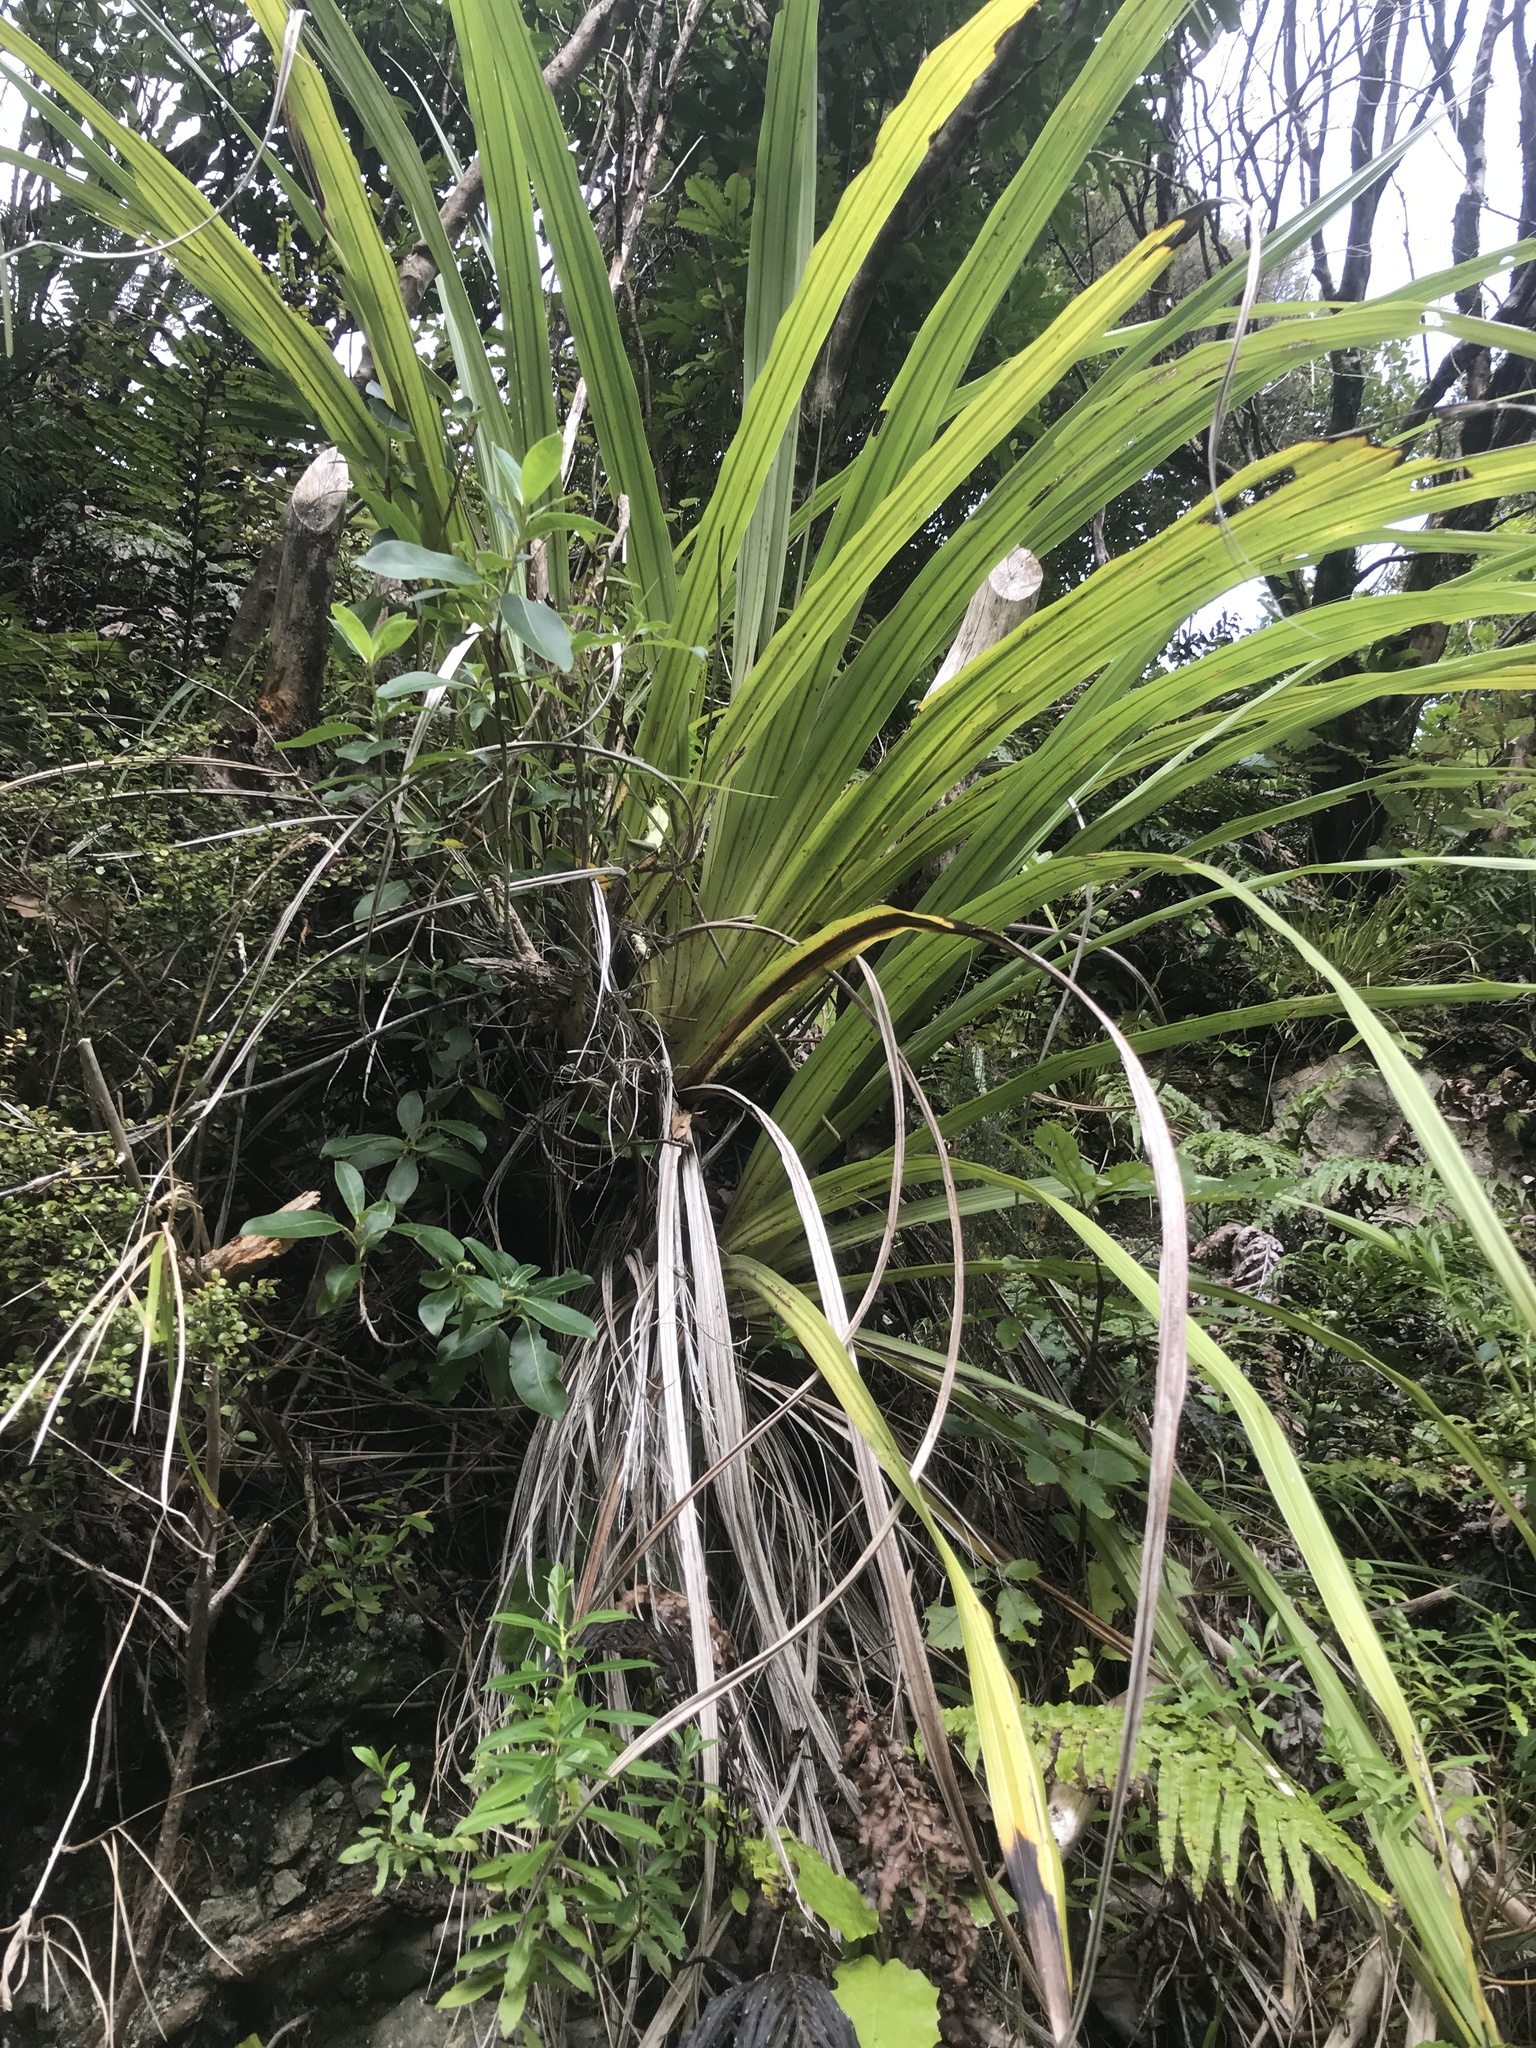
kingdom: Plantae
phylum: Tracheophyta
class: Liliopsida
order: Asparagales
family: Asteliaceae
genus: Astelia
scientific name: Astelia fragrans
